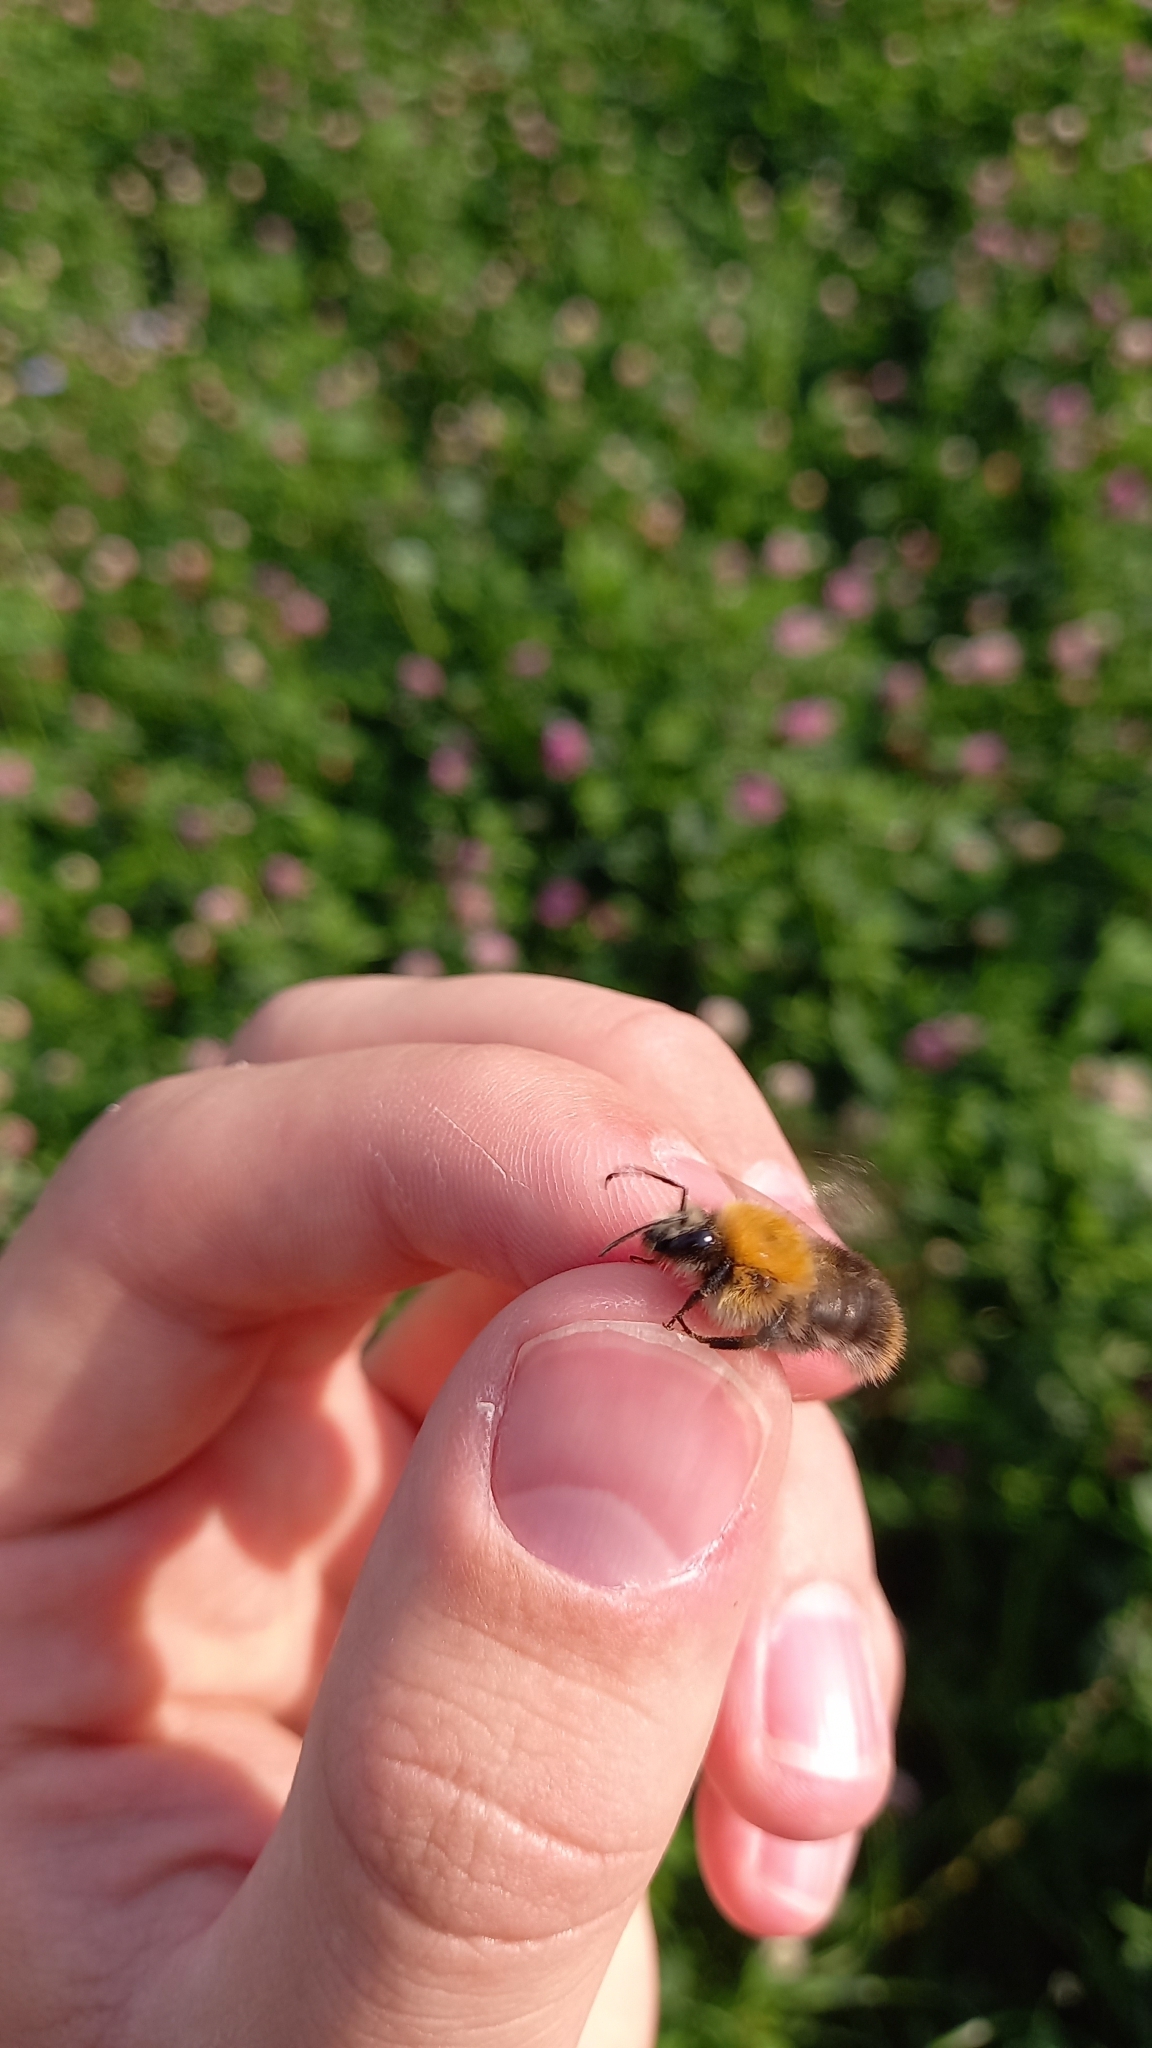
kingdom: Animalia
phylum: Arthropoda
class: Insecta
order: Hymenoptera
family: Apidae
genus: Bombus
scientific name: Bombus pascuorum
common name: Common carder bee
